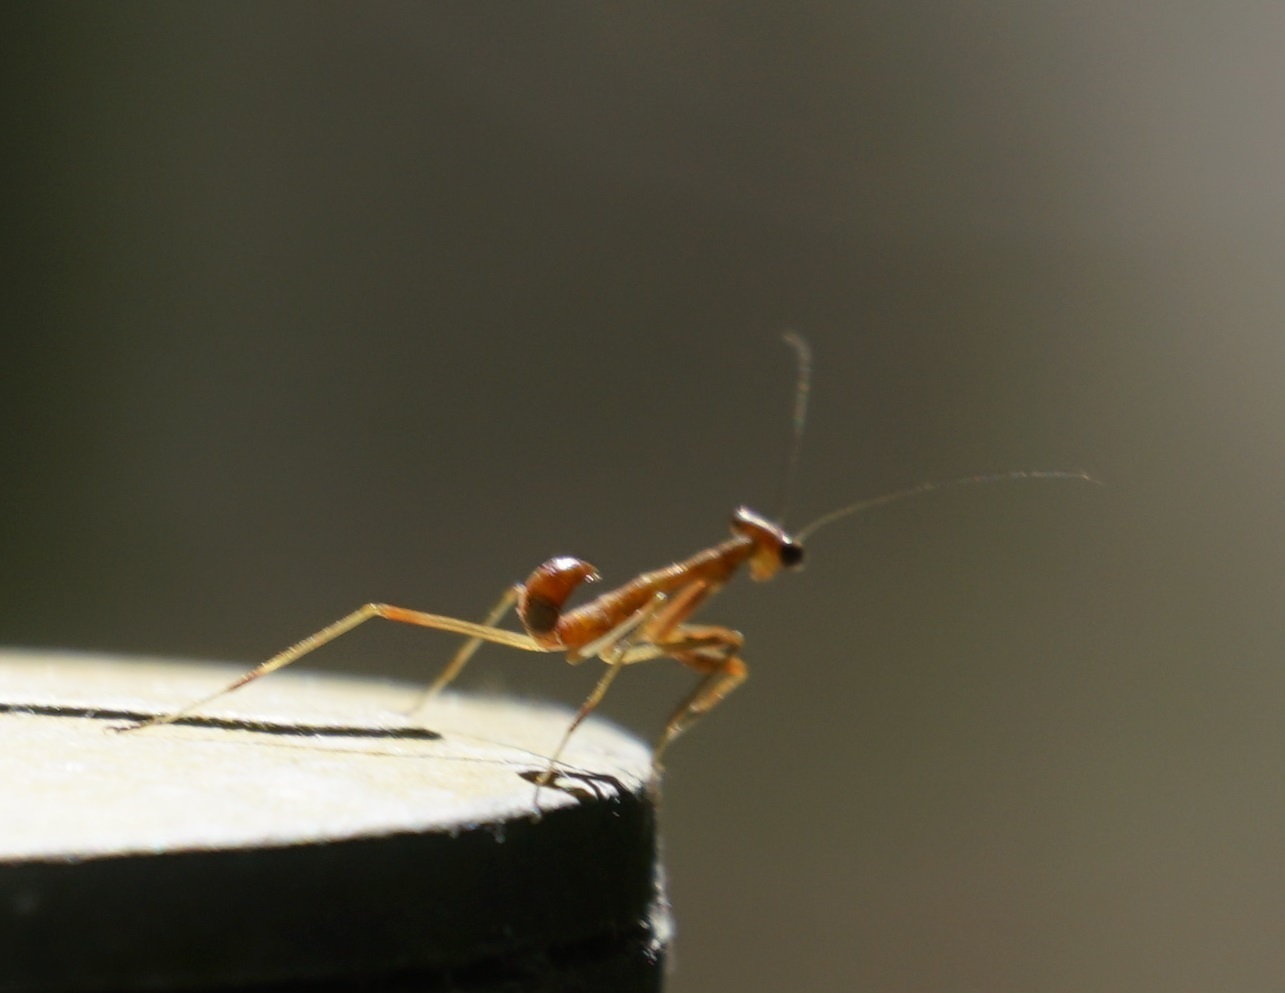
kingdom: Animalia
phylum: Arthropoda
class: Insecta
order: Mantodea
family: Mantidae
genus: Hierodula
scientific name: Hierodula majuscula
